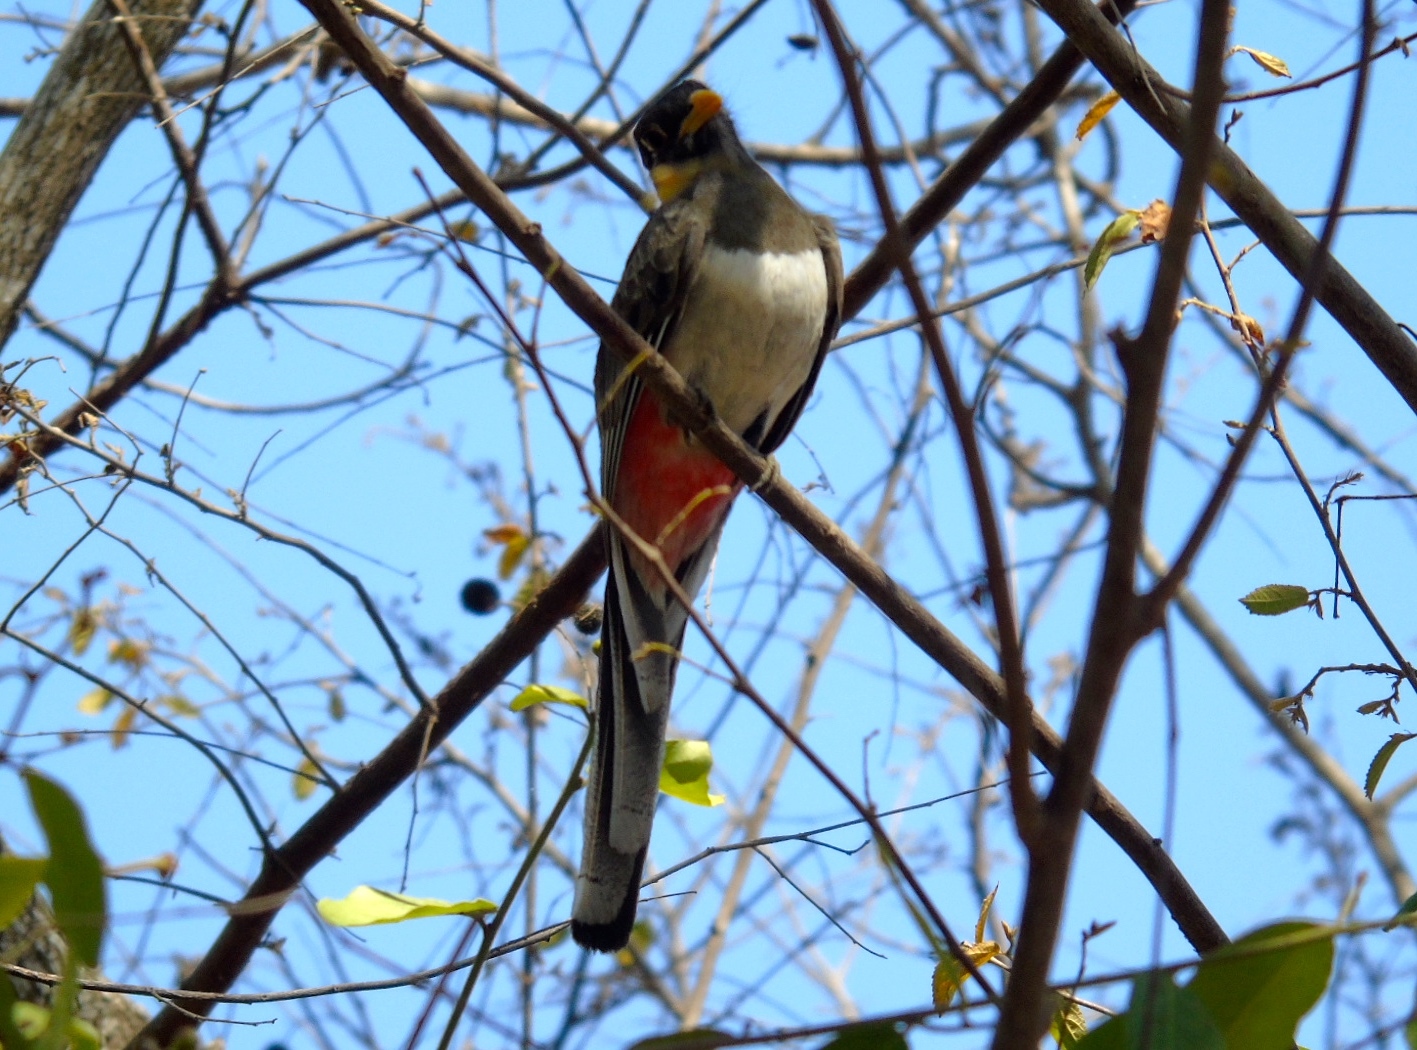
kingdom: Animalia
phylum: Chordata
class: Aves
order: Trogoniformes
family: Trogonidae
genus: Trogon
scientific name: Trogon elegans
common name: Elegant trogon
